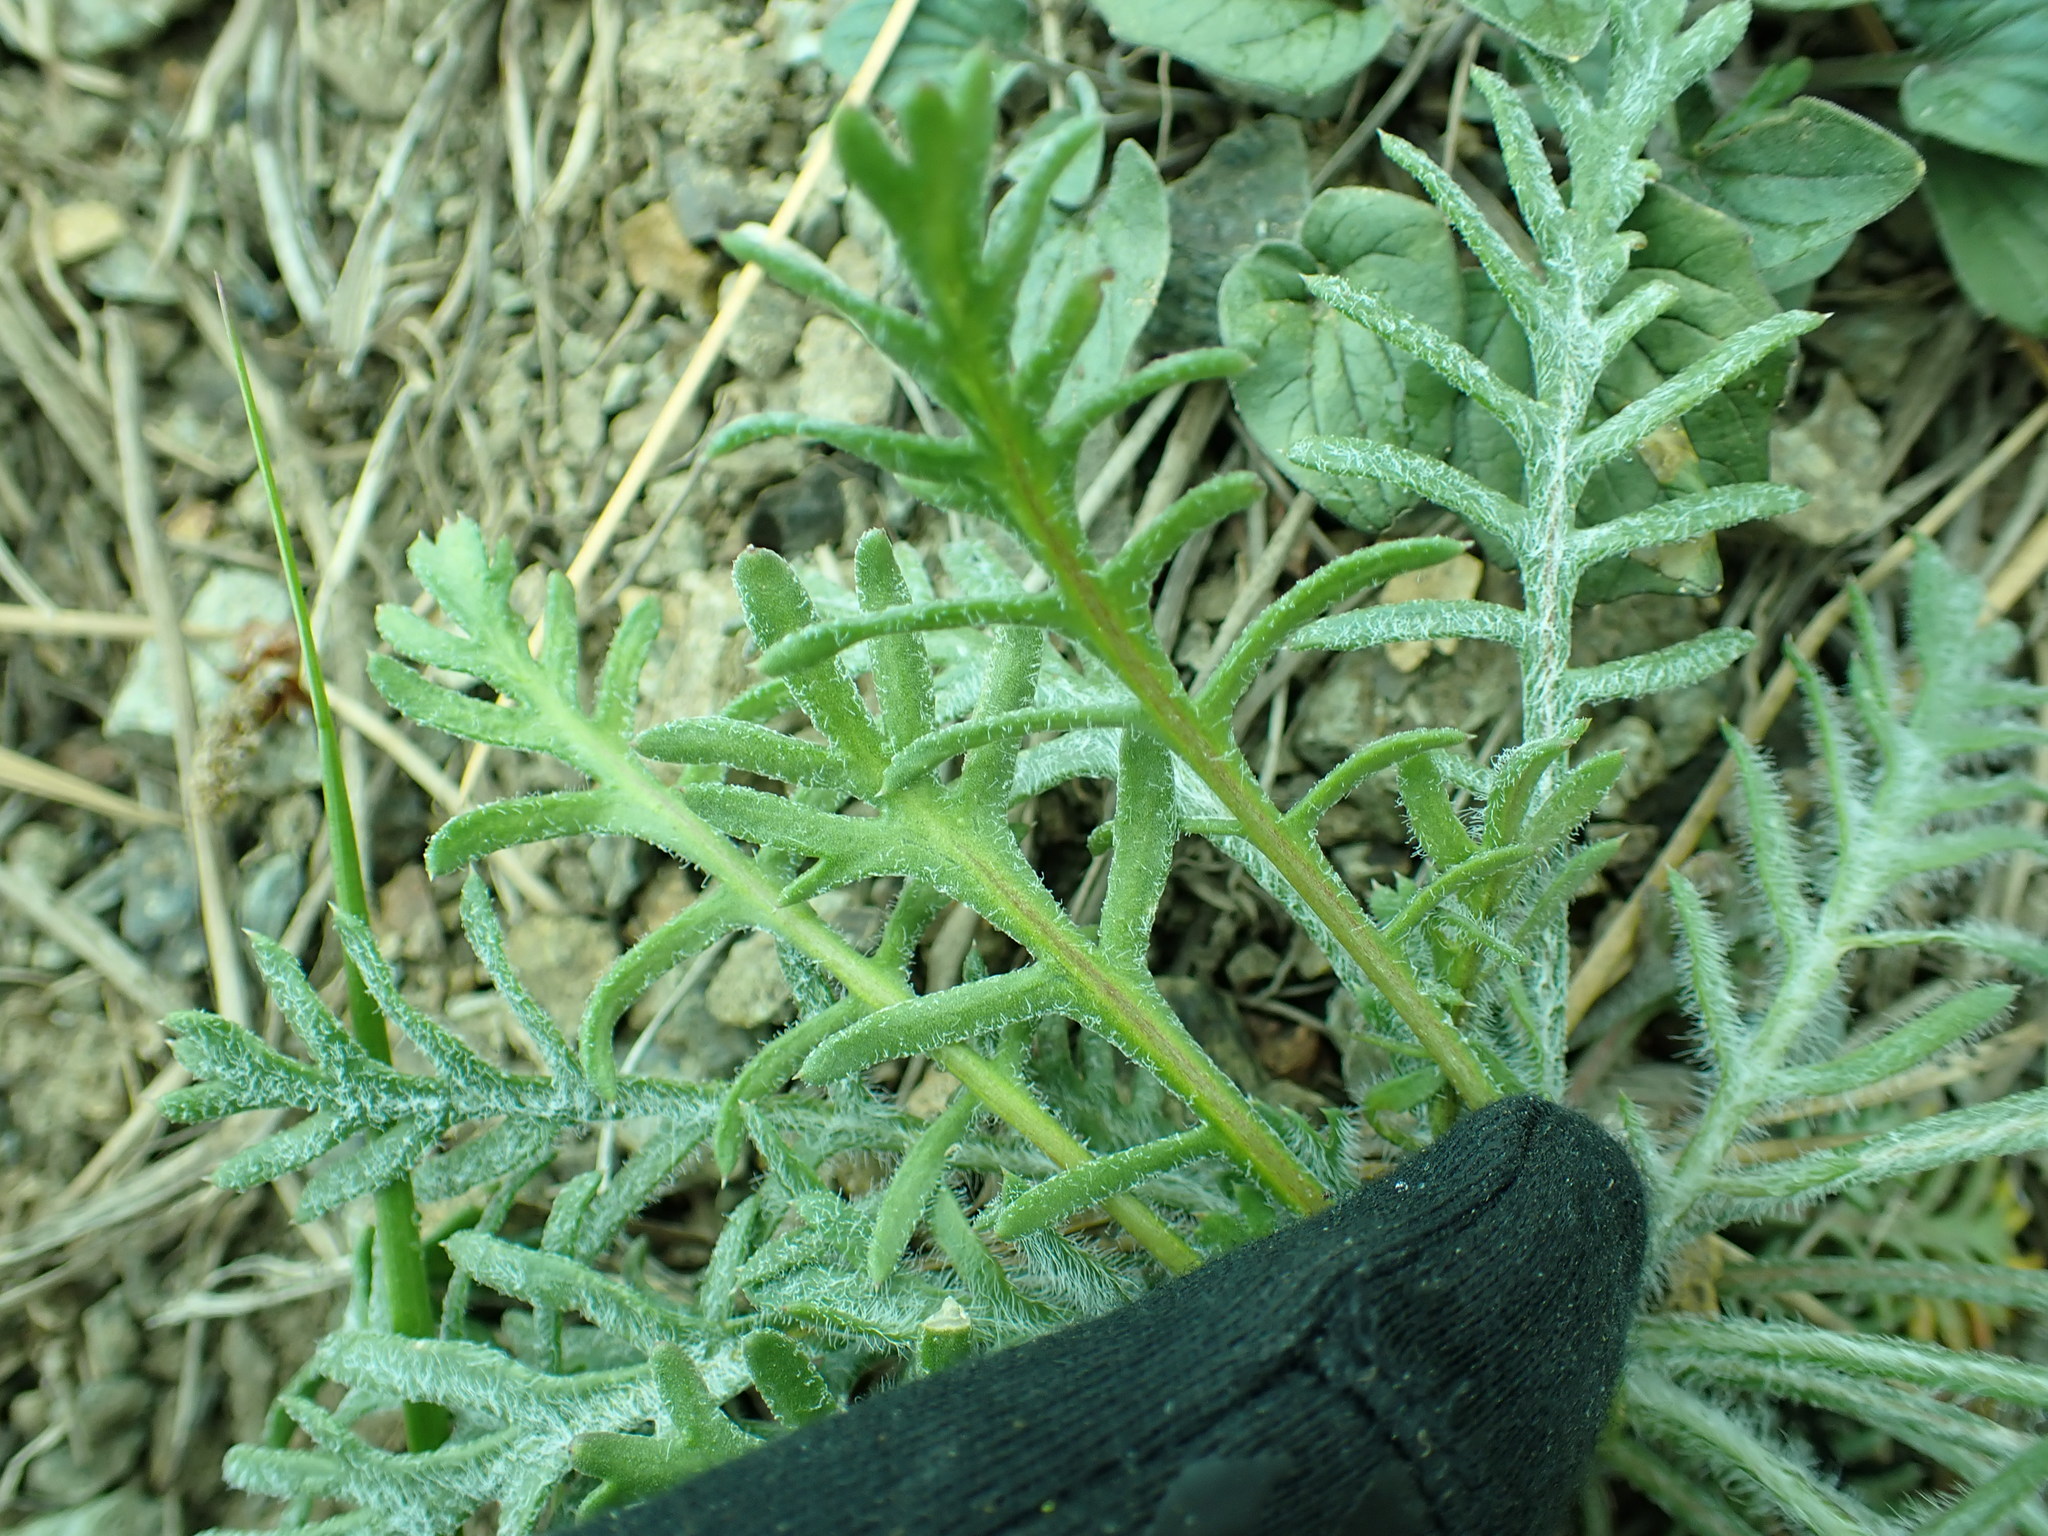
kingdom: Plantae
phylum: Tracheophyta
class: Magnoliopsida
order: Ericales
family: Polemoniaceae
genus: Ipomopsis
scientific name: Ipomopsis aggregata
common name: Scarlet gilia
